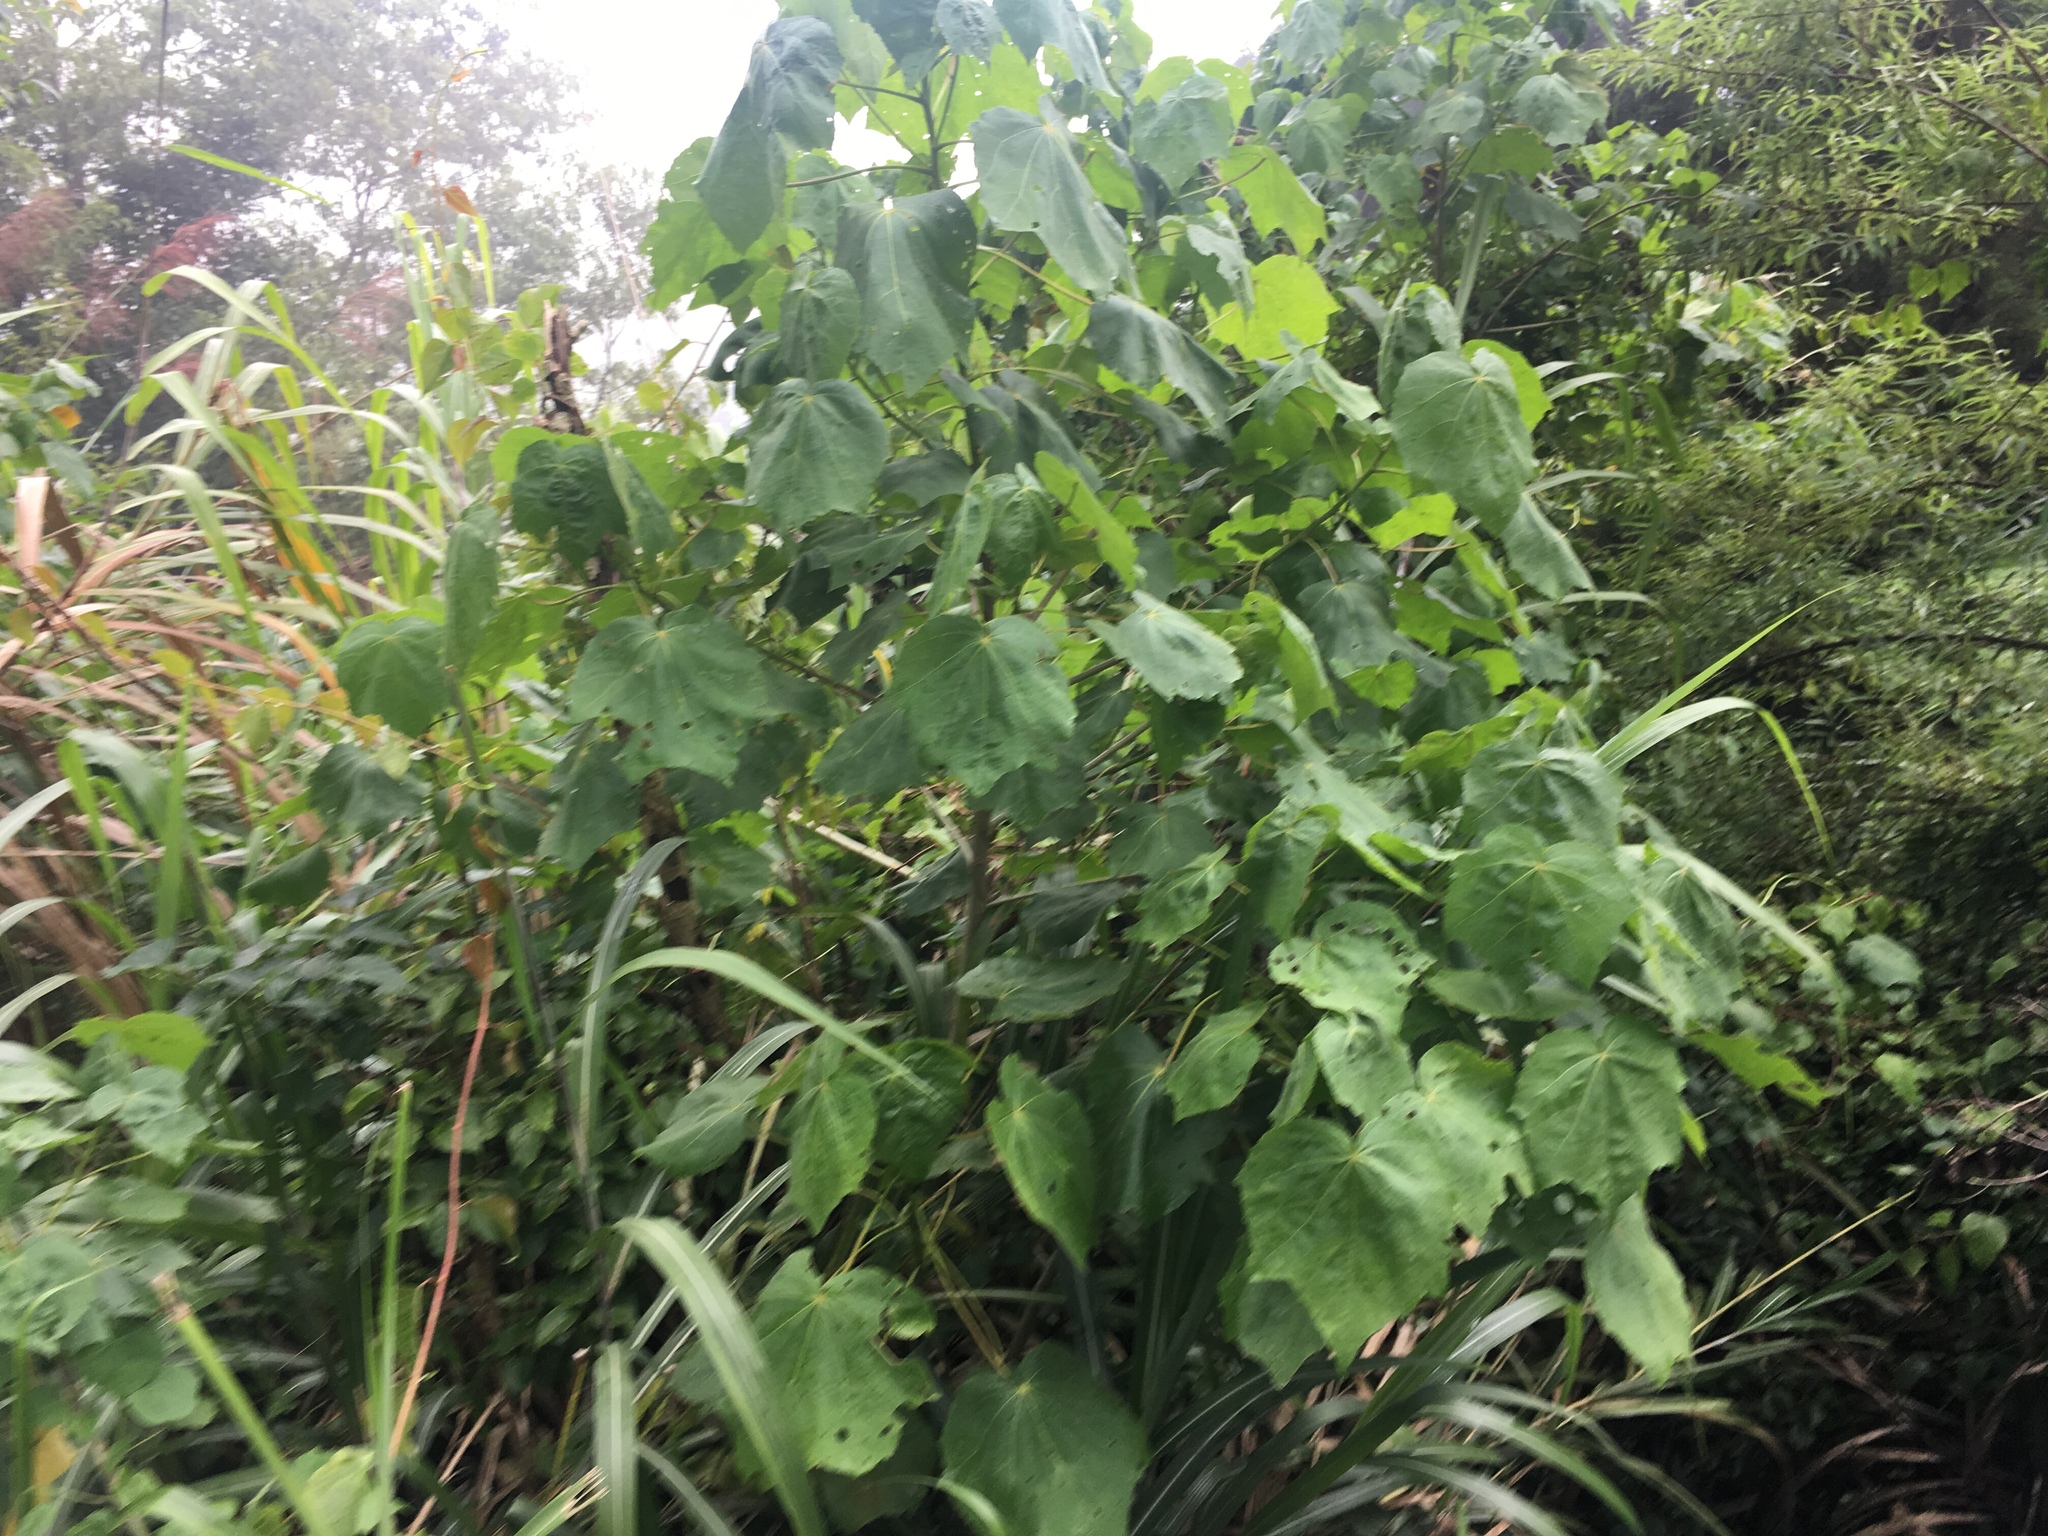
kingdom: Plantae
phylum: Tracheophyta
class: Magnoliopsida
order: Malvales
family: Malvaceae
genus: Hibiscus
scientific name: Hibiscus taiwanensis
